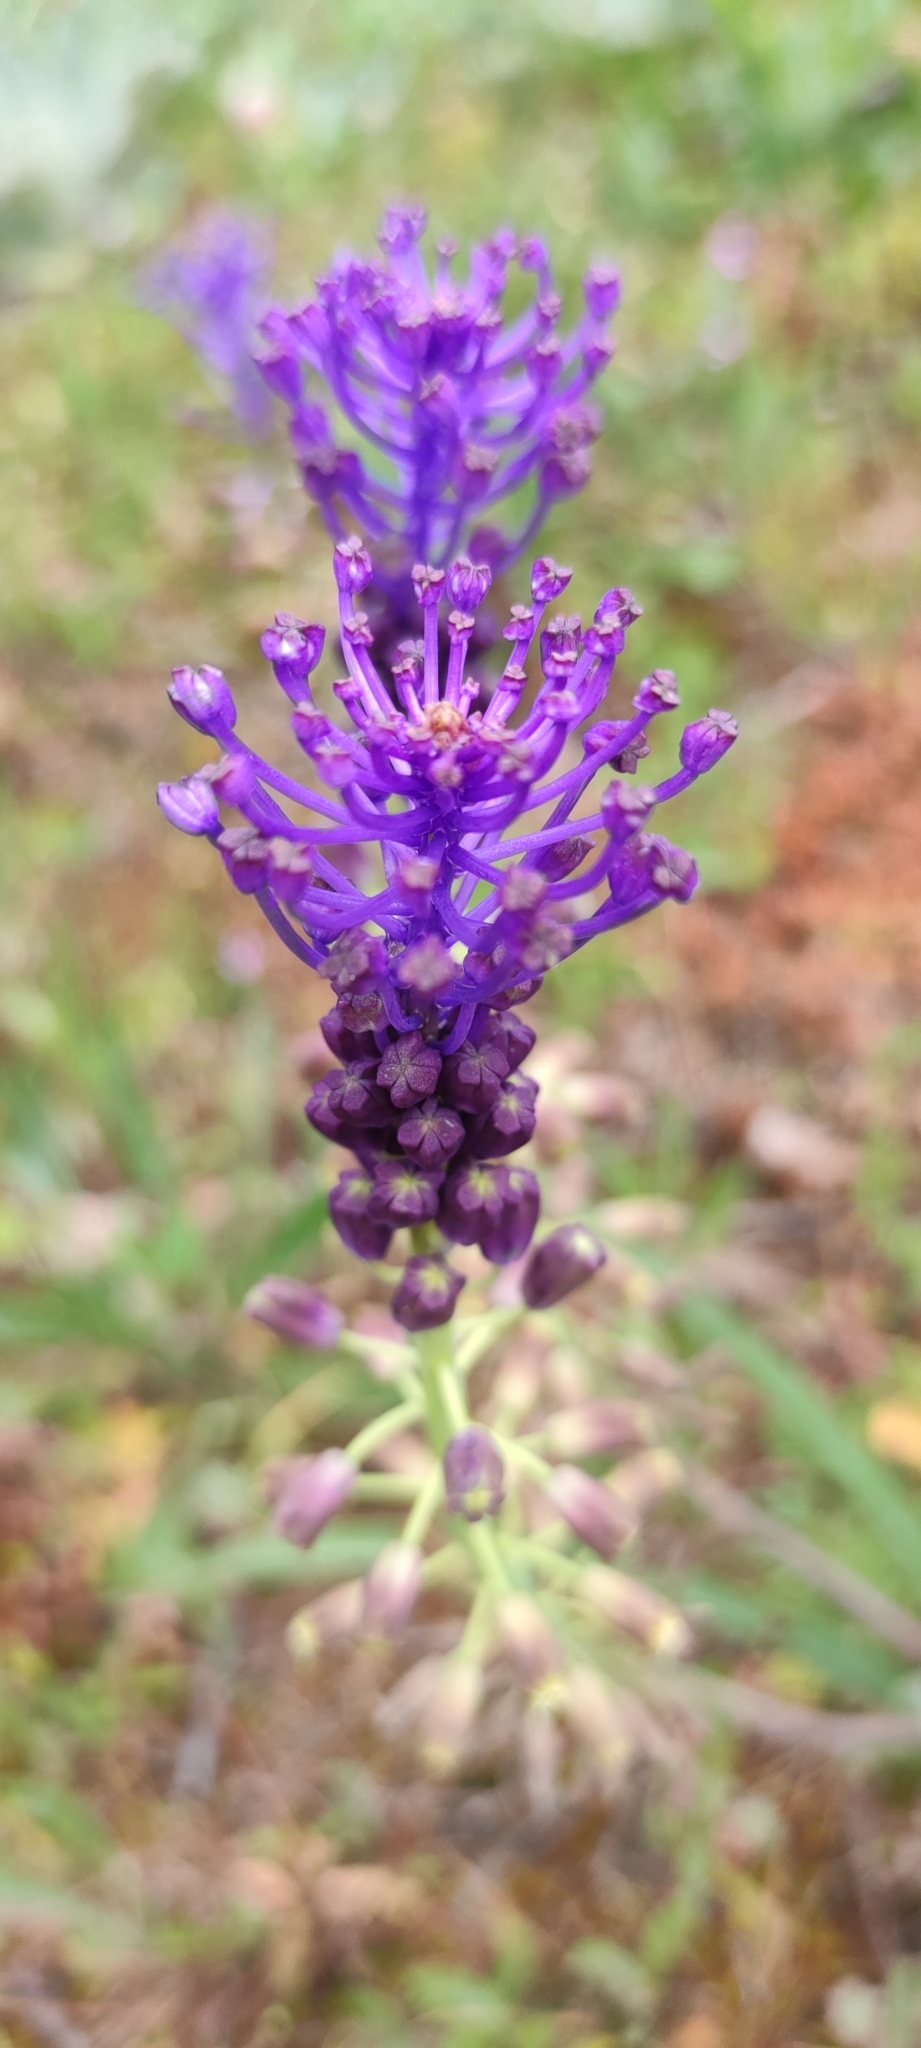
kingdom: Plantae
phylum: Tracheophyta
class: Liliopsida
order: Asparagales
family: Asparagaceae
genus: Muscari
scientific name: Muscari comosum
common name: Tassel hyacinth
